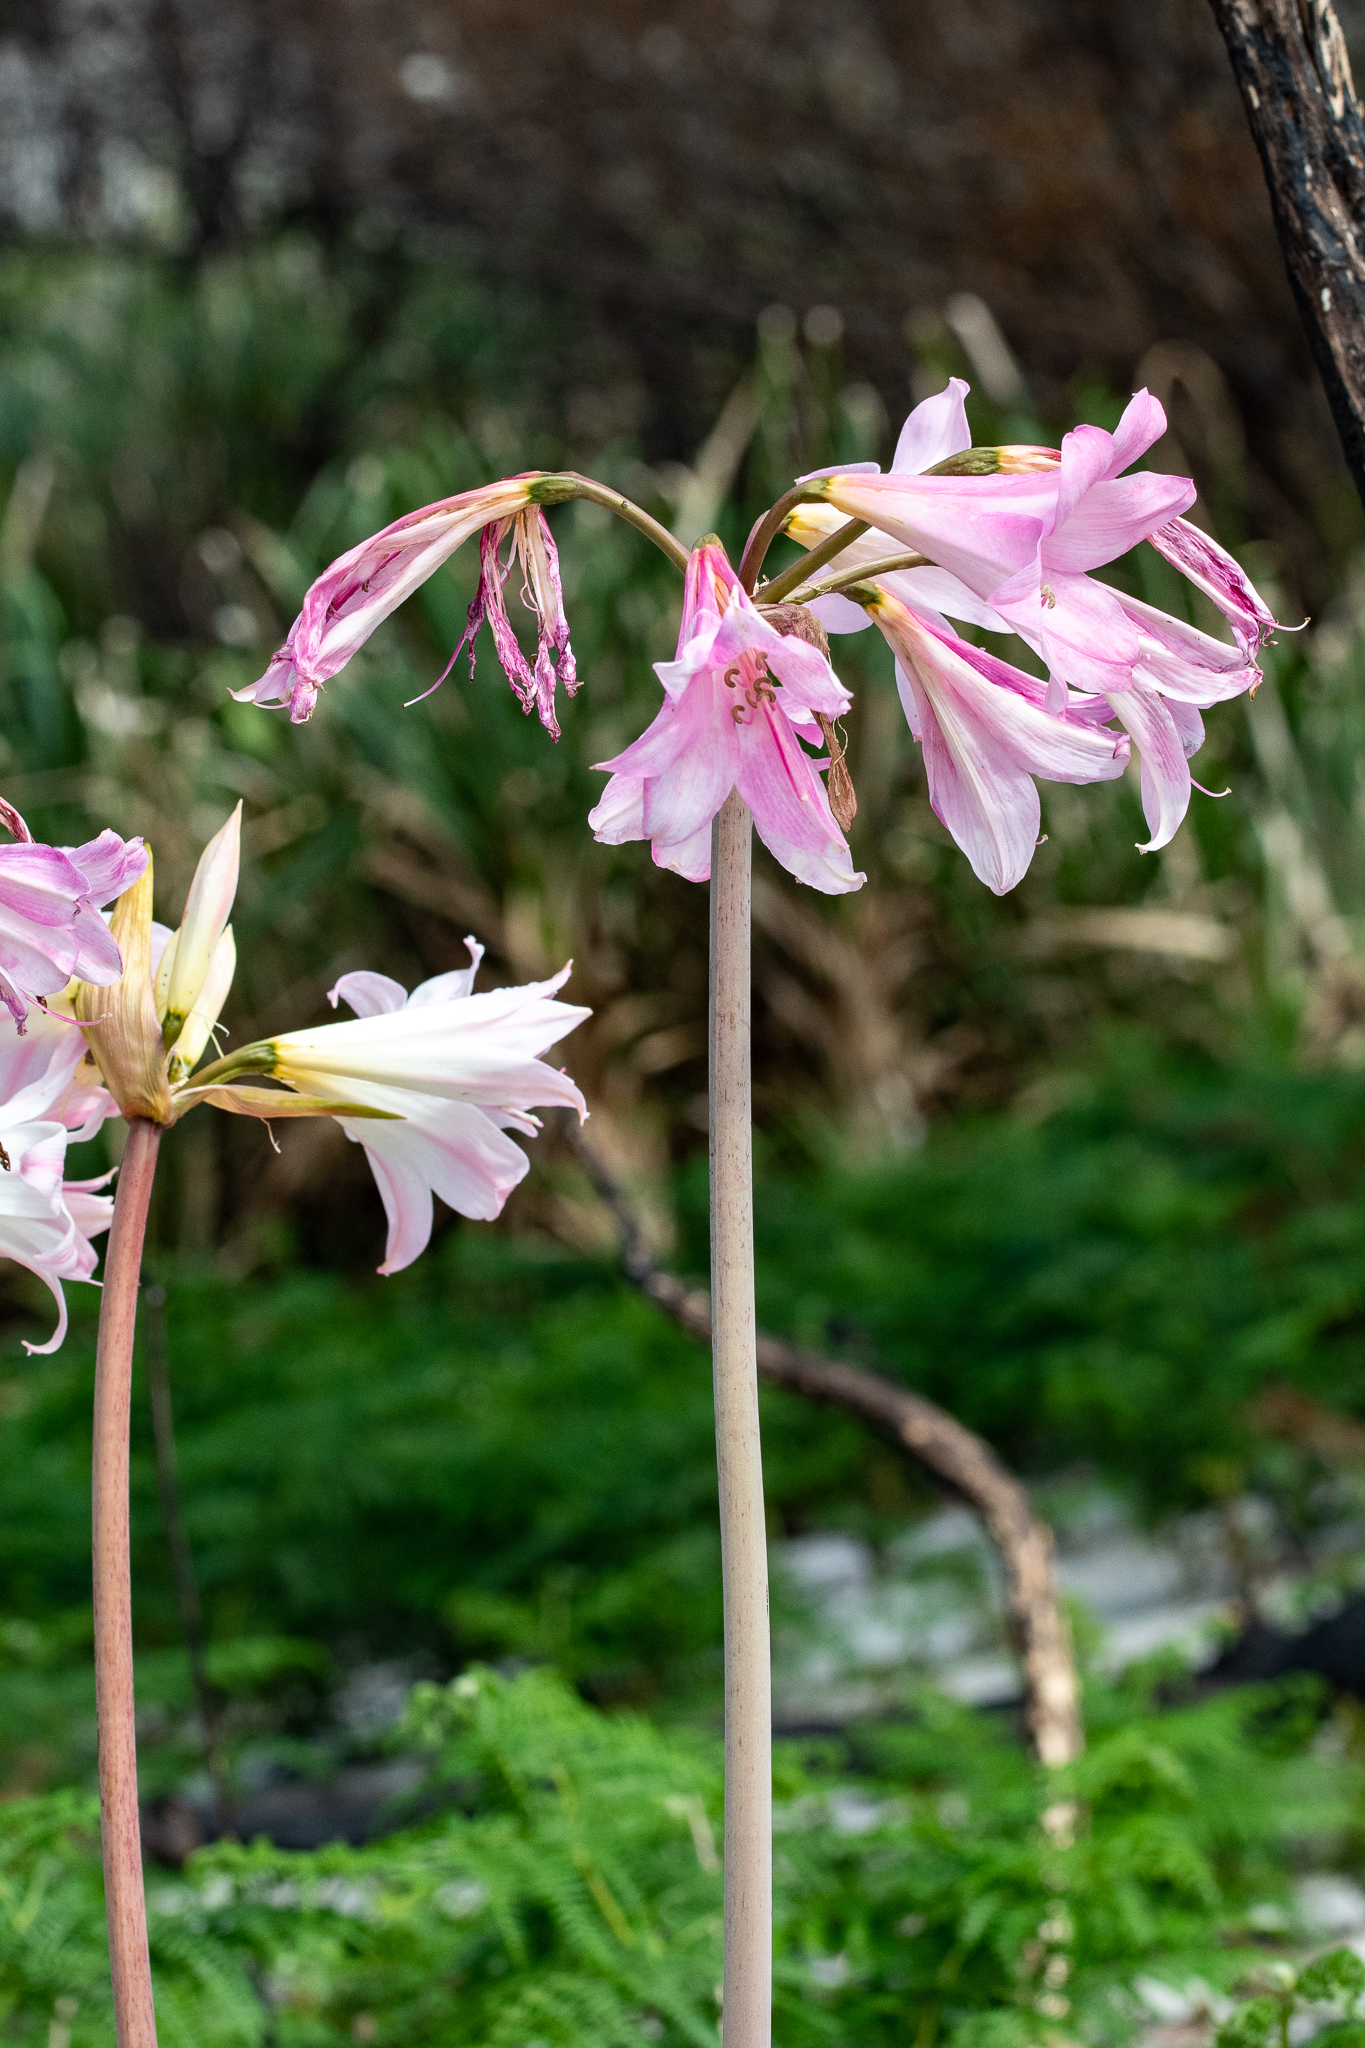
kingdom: Plantae
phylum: Tracheophyta
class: Liliopsida
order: Asparagales
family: Amaryllidaceae
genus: Amaryllis
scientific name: Amaryllis belladonna
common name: Jersey lily
